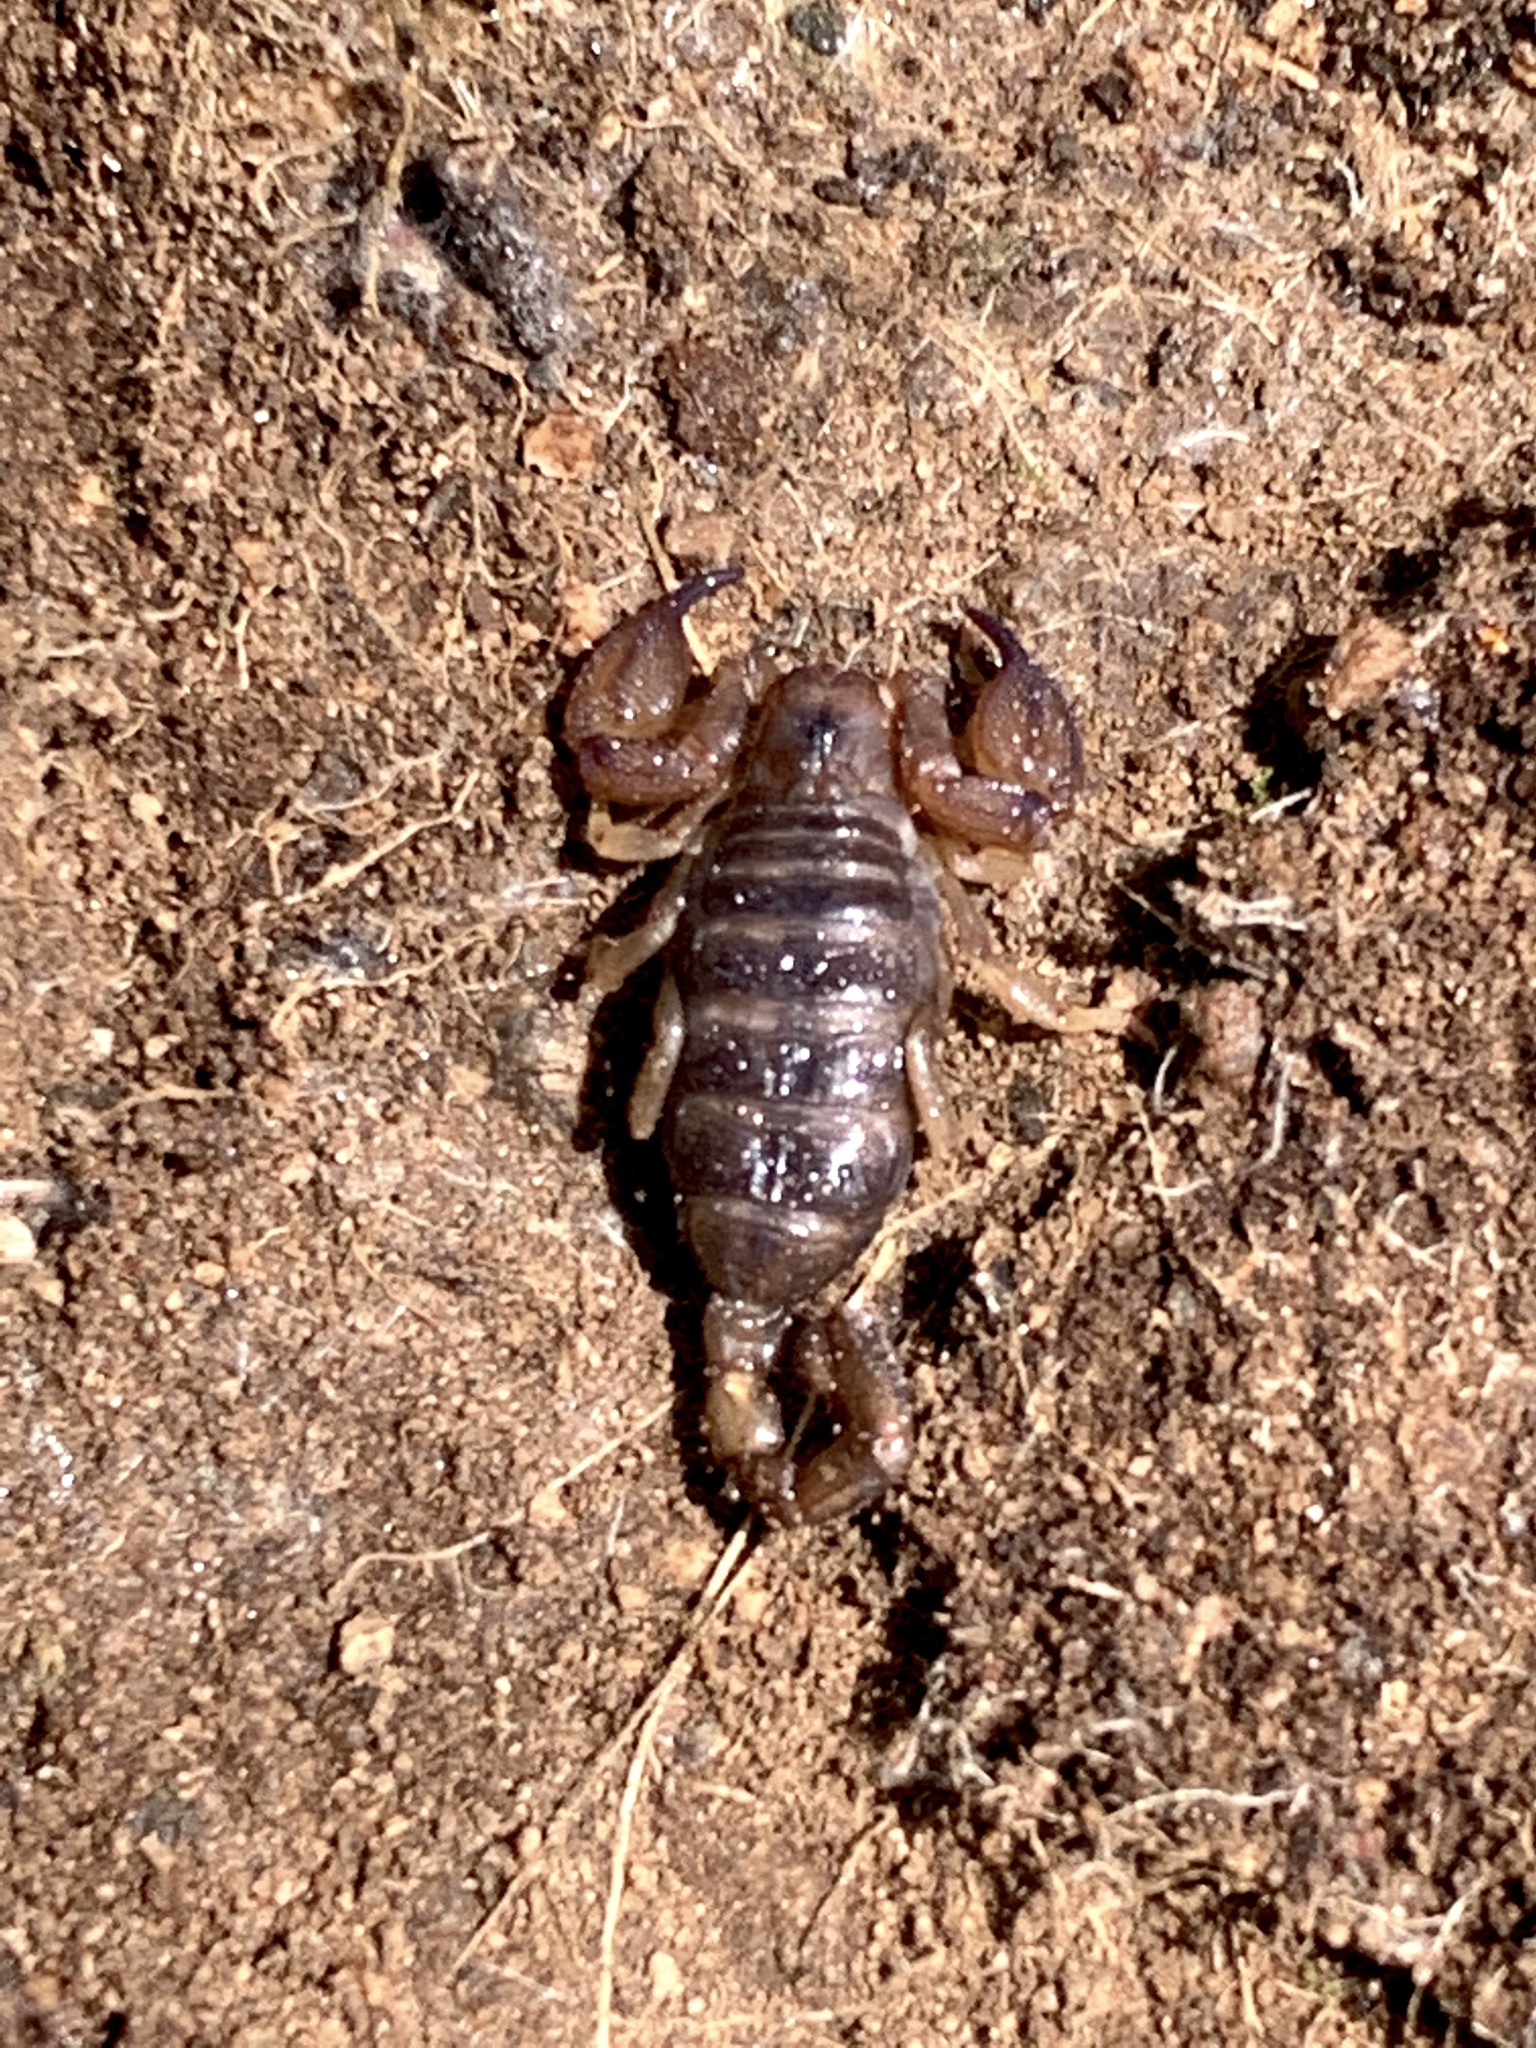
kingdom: Animalia
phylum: Arthropoda
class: Arachnida
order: Scorpiones
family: Scorpionidae
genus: Urodacus
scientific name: Urodacus manicatus
